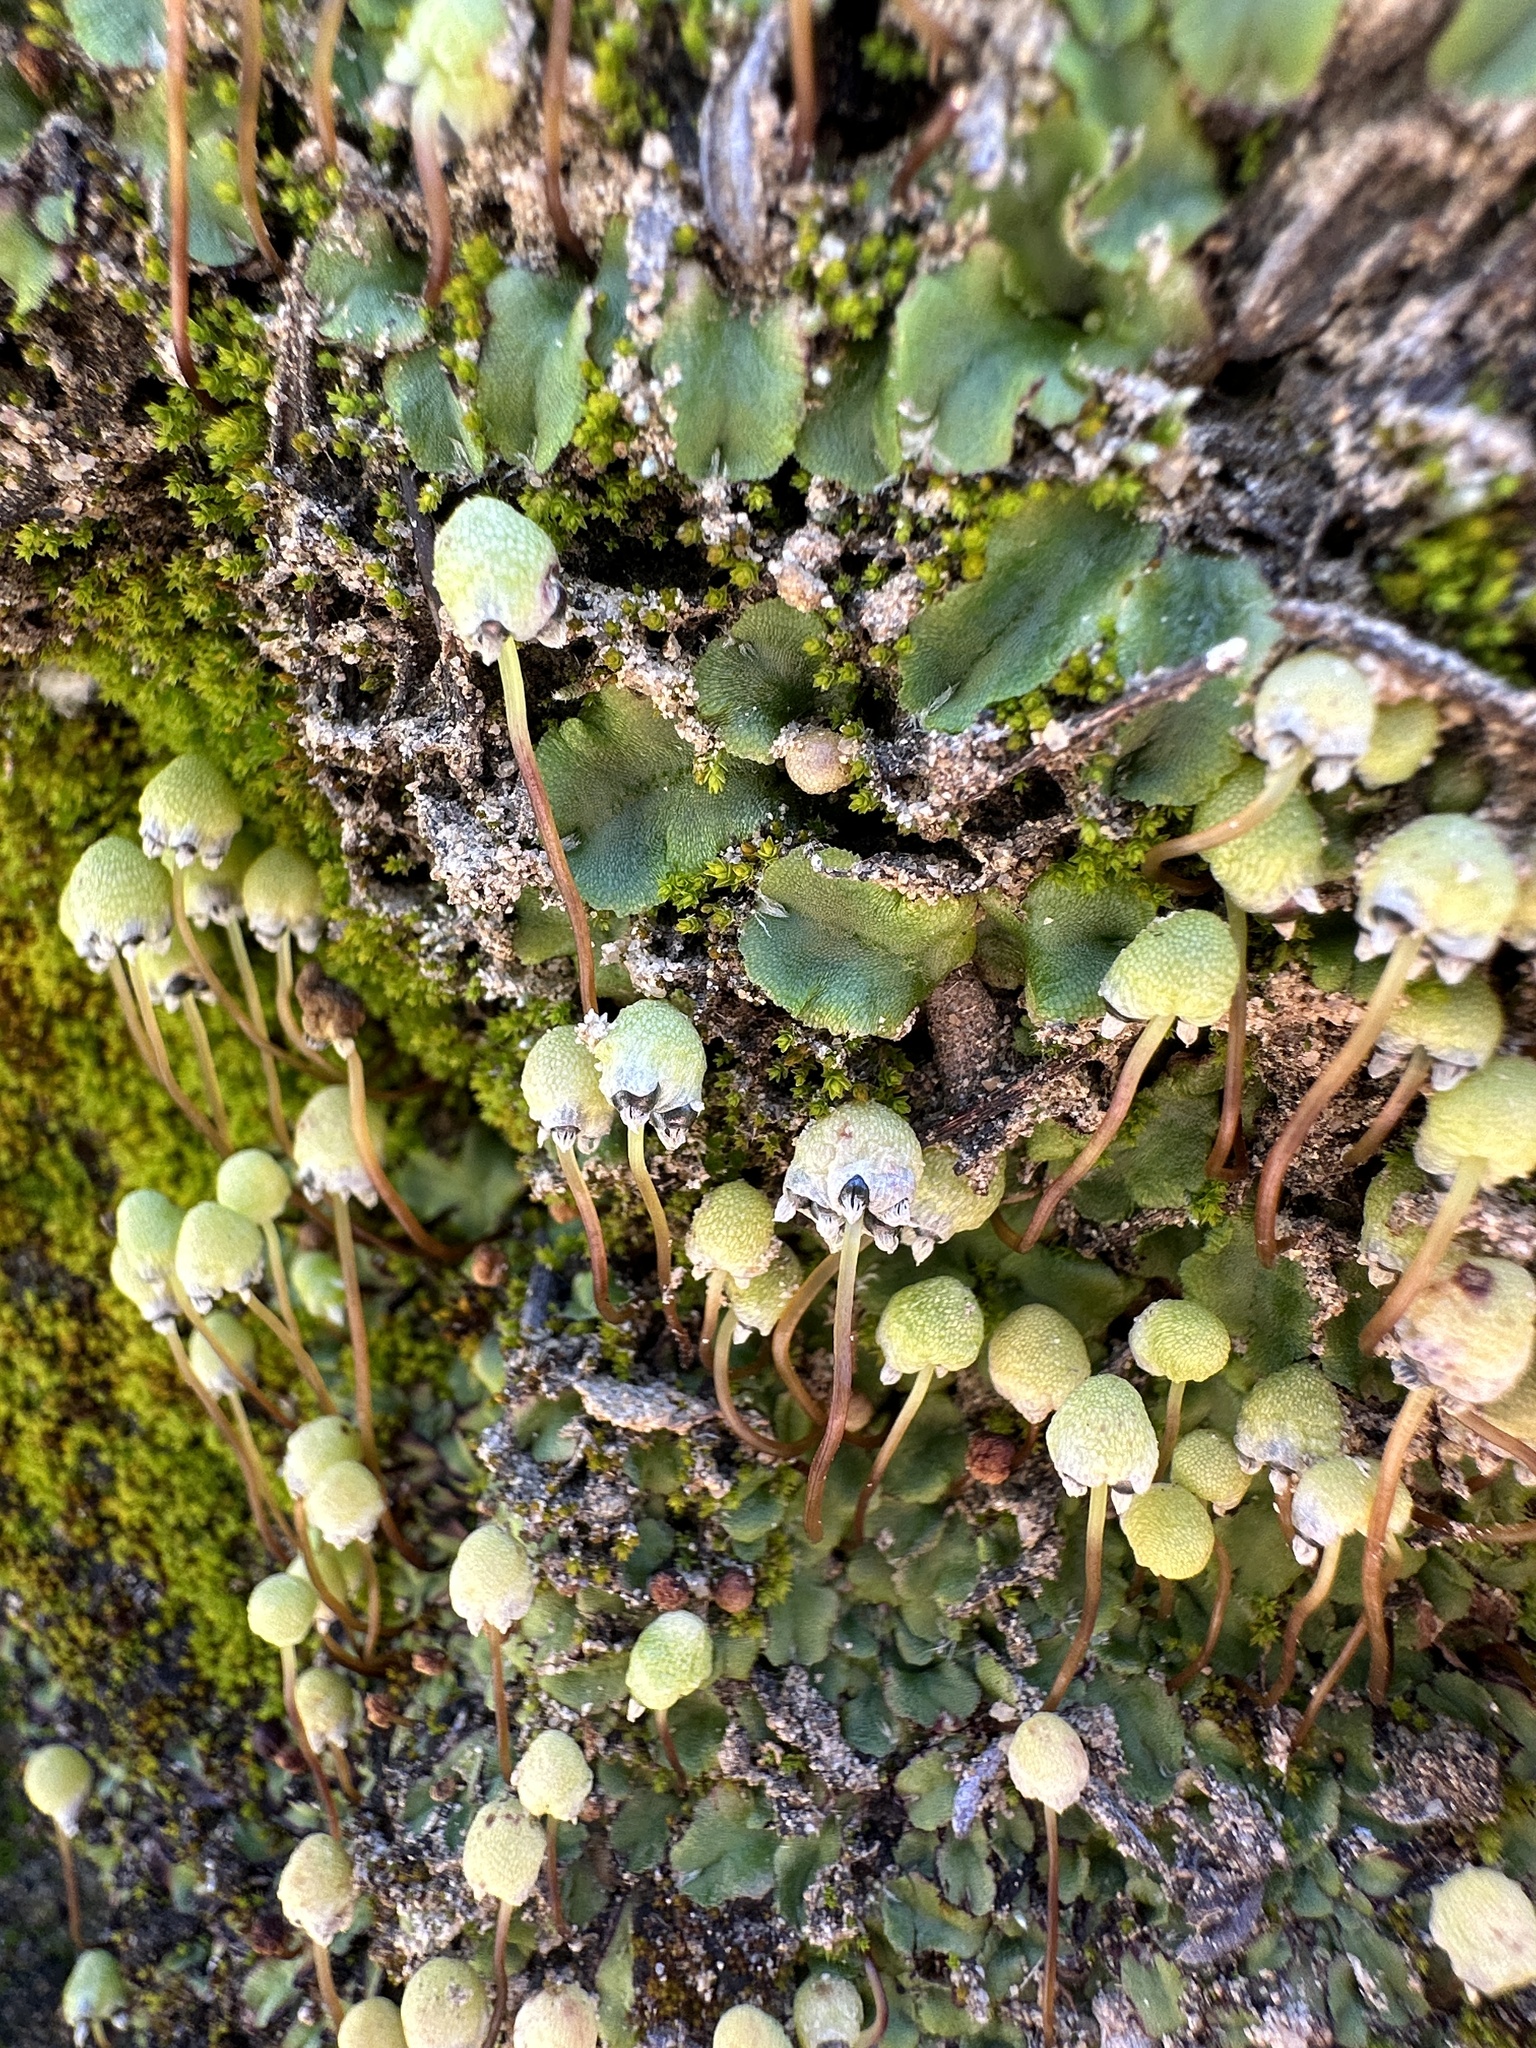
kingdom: Plantae
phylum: Marchantiophyta
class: Marchantiopsida
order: Marchantiales
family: Aytoniaceae
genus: Asterella
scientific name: Asterella palmeri
